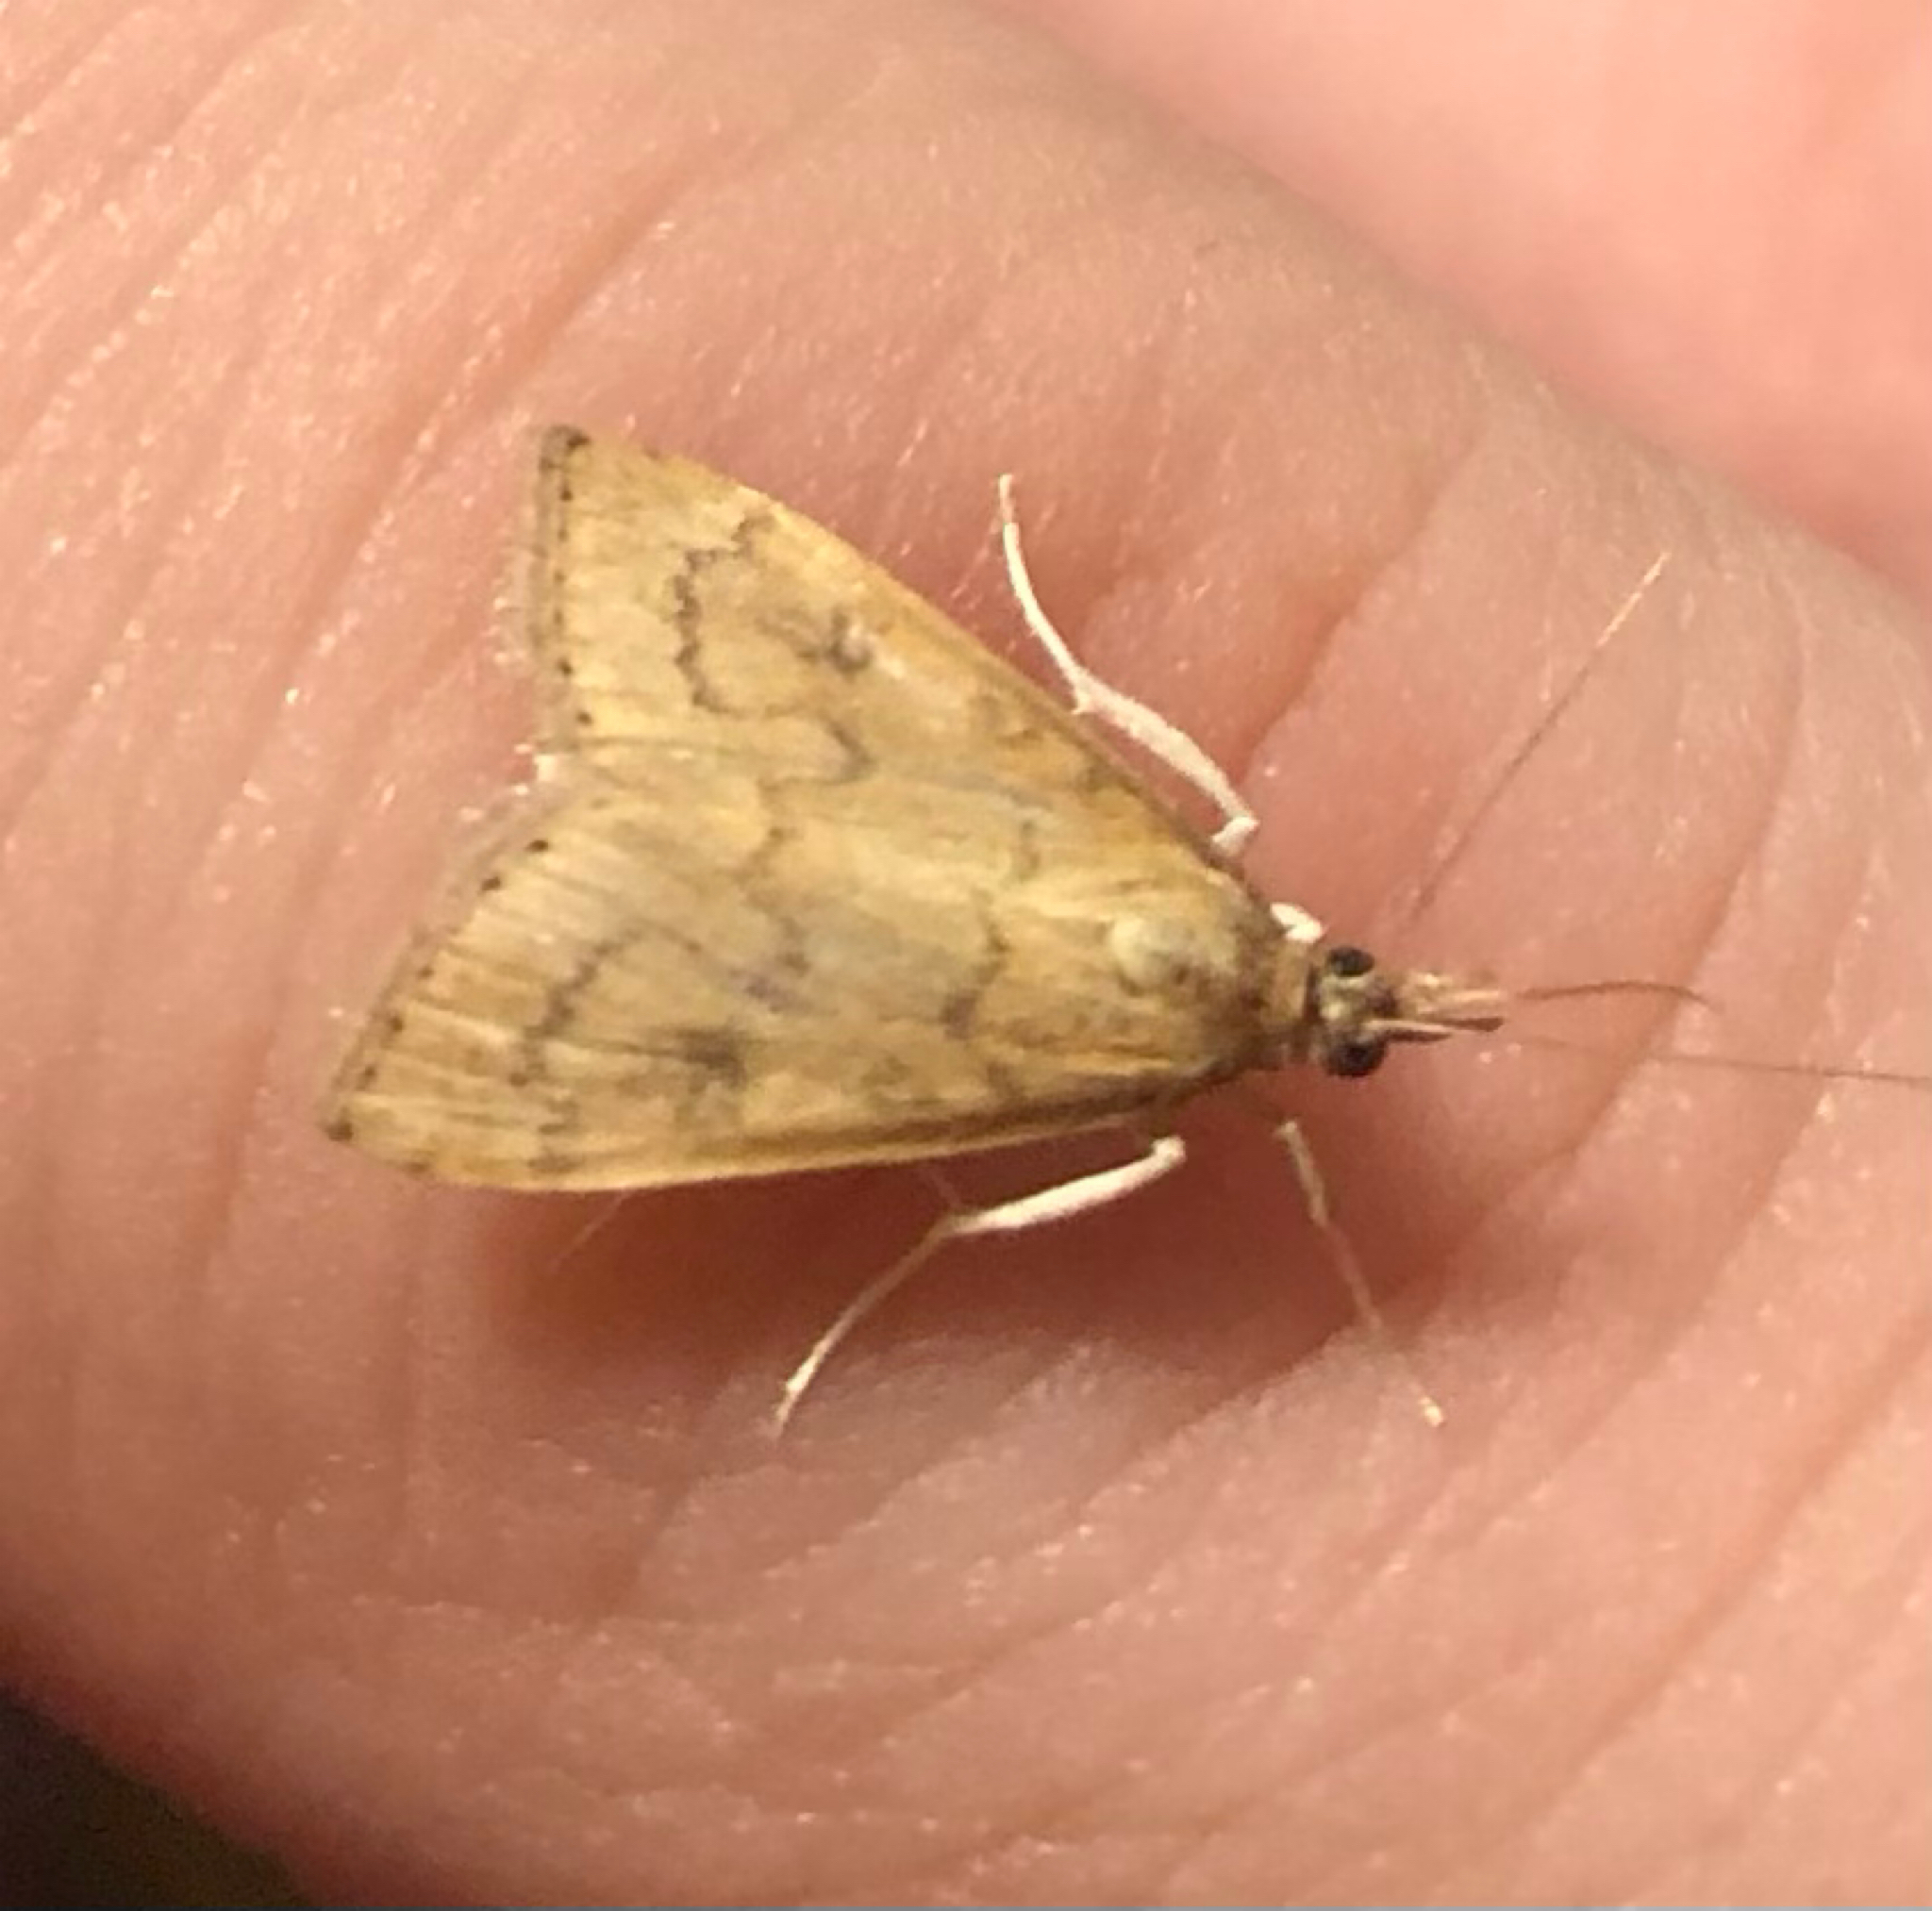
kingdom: Animalia
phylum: Arthropoda
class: Insecta
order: Lepidoptera
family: Crambidae
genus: Udea
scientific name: Udea rubigalis
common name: Celery leaftier moth
